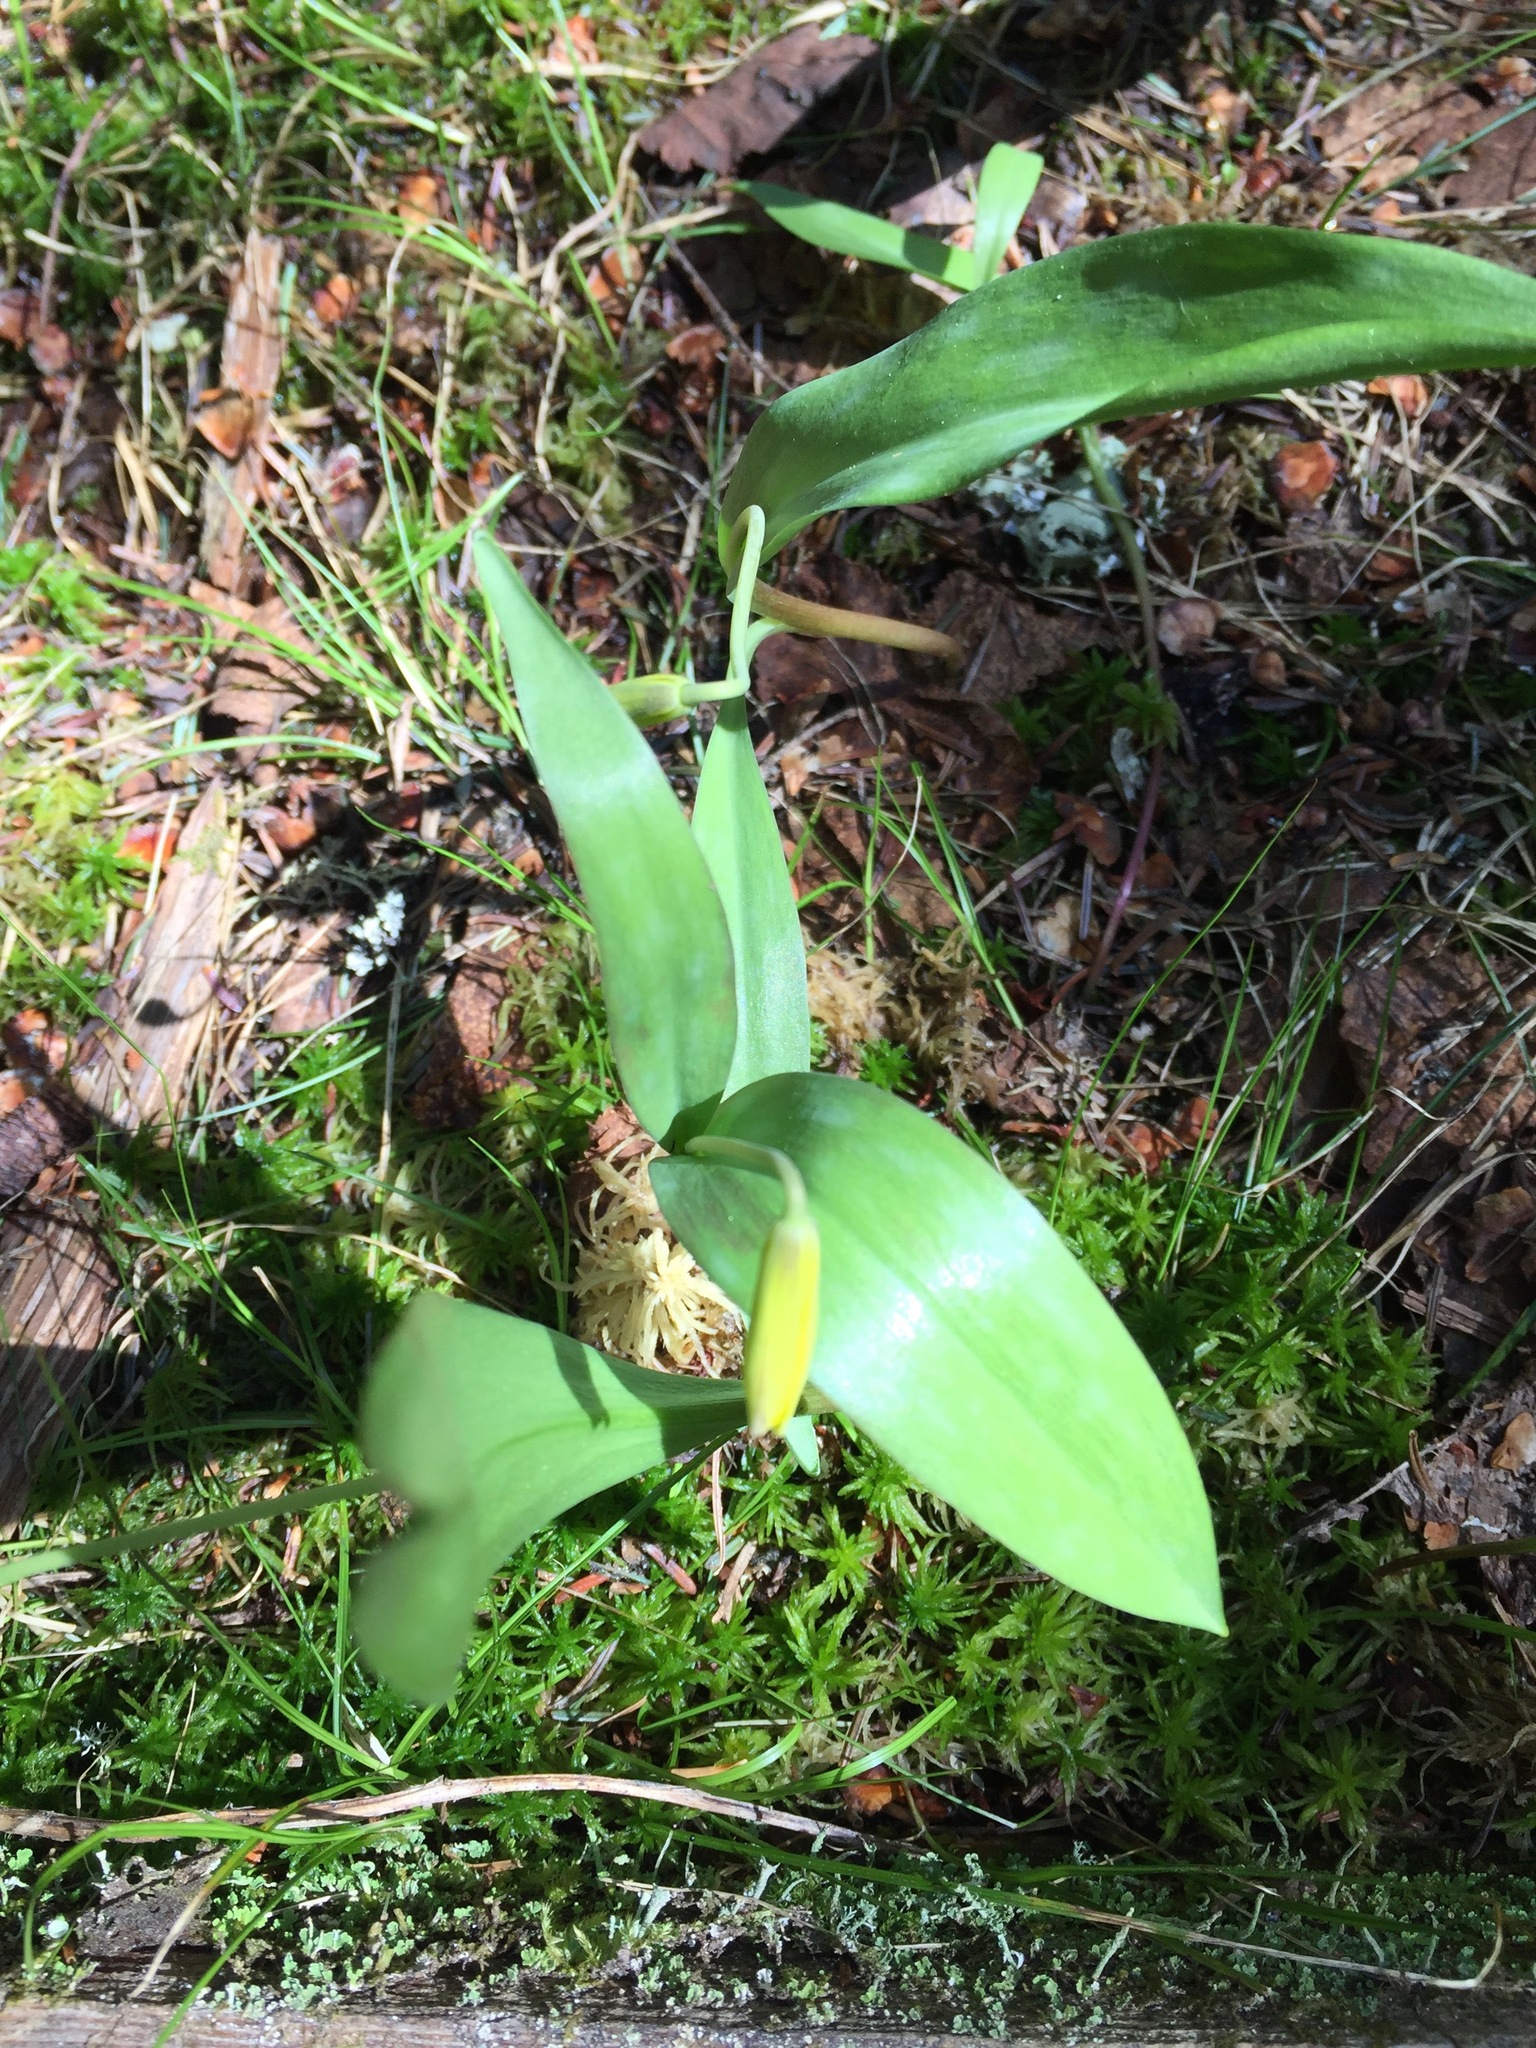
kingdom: Plantae
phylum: Tracheophyta
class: Liliopsida
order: Liliales
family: Liliaceae
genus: Erythronium
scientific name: Erythronium americanum
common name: Yellow adder's-tongue
